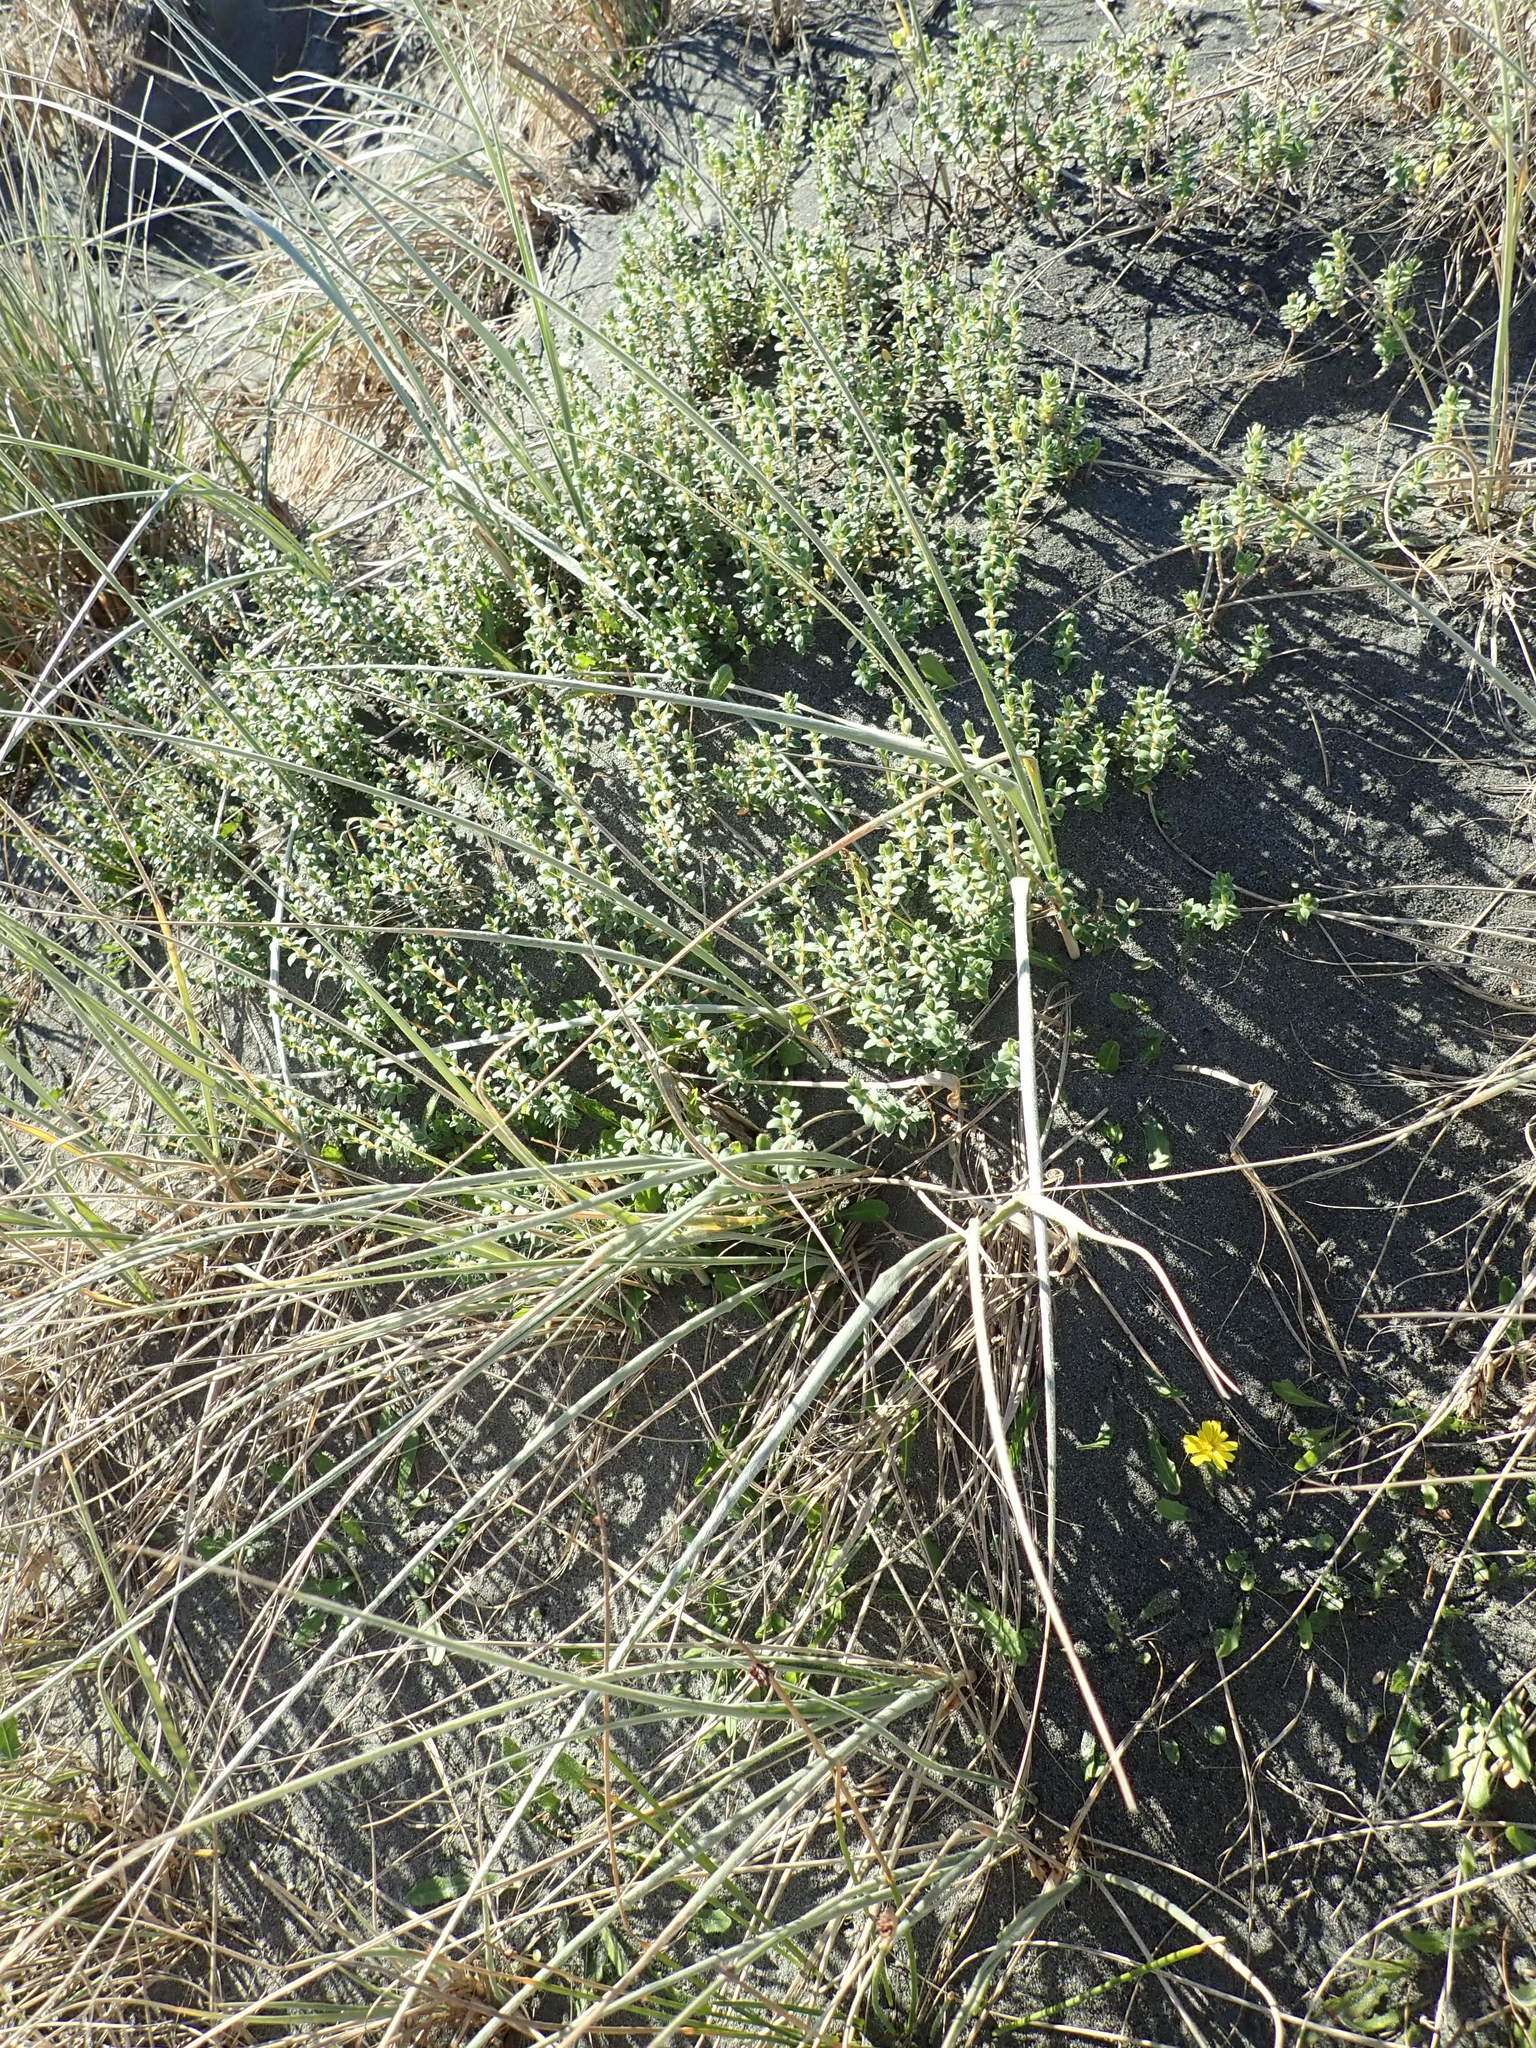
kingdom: Plantae
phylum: Tracheophyta
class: Magnoliopsida
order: Malvales
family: Thymelaeaceae
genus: Pimelea
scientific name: Pimelea villosa
